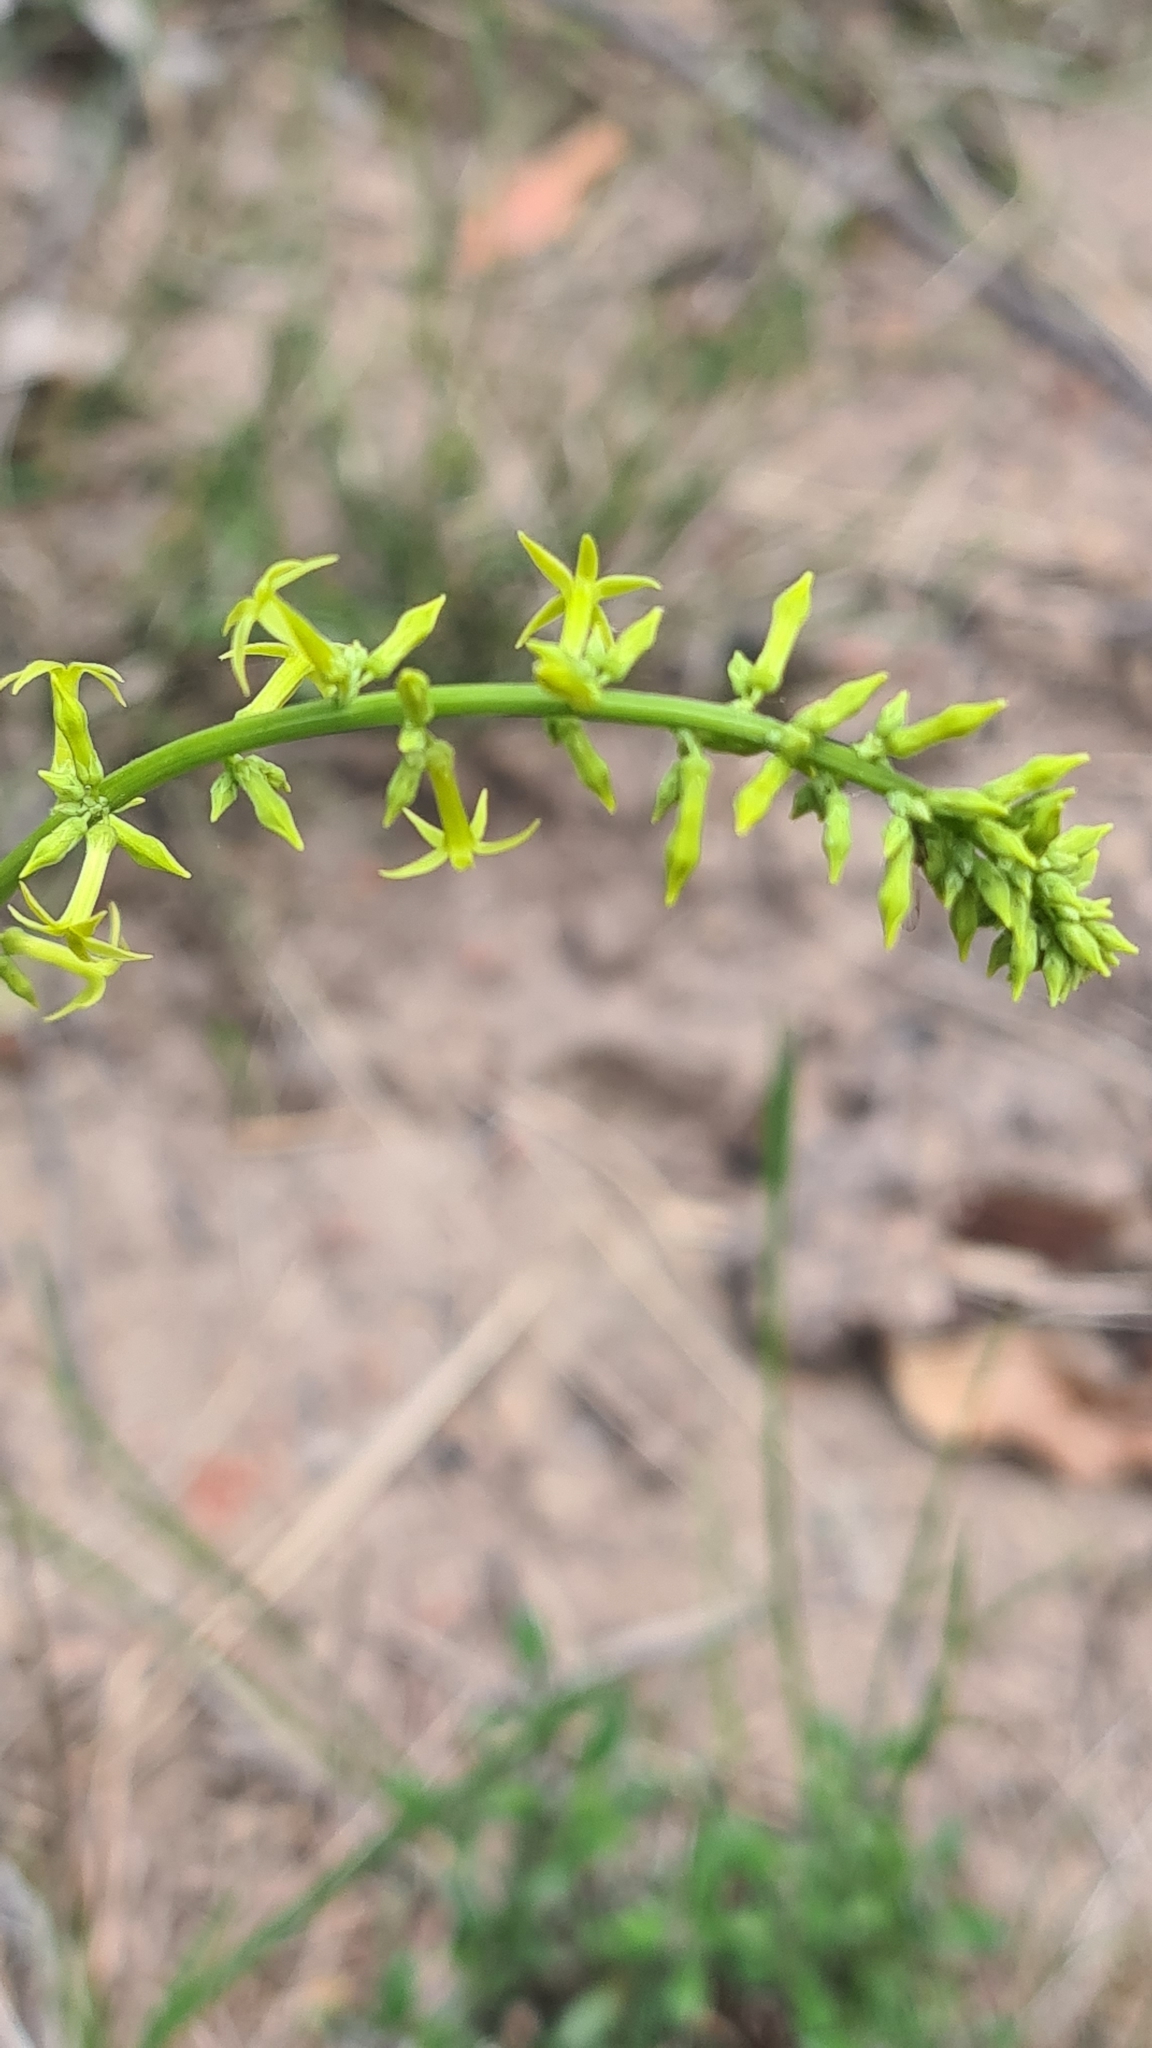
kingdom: Plantae
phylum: Tracheophyta
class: Magnoliopsida
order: Celastrales
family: Celastraceae
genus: Stackhousia
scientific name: Stackhousia viminea
